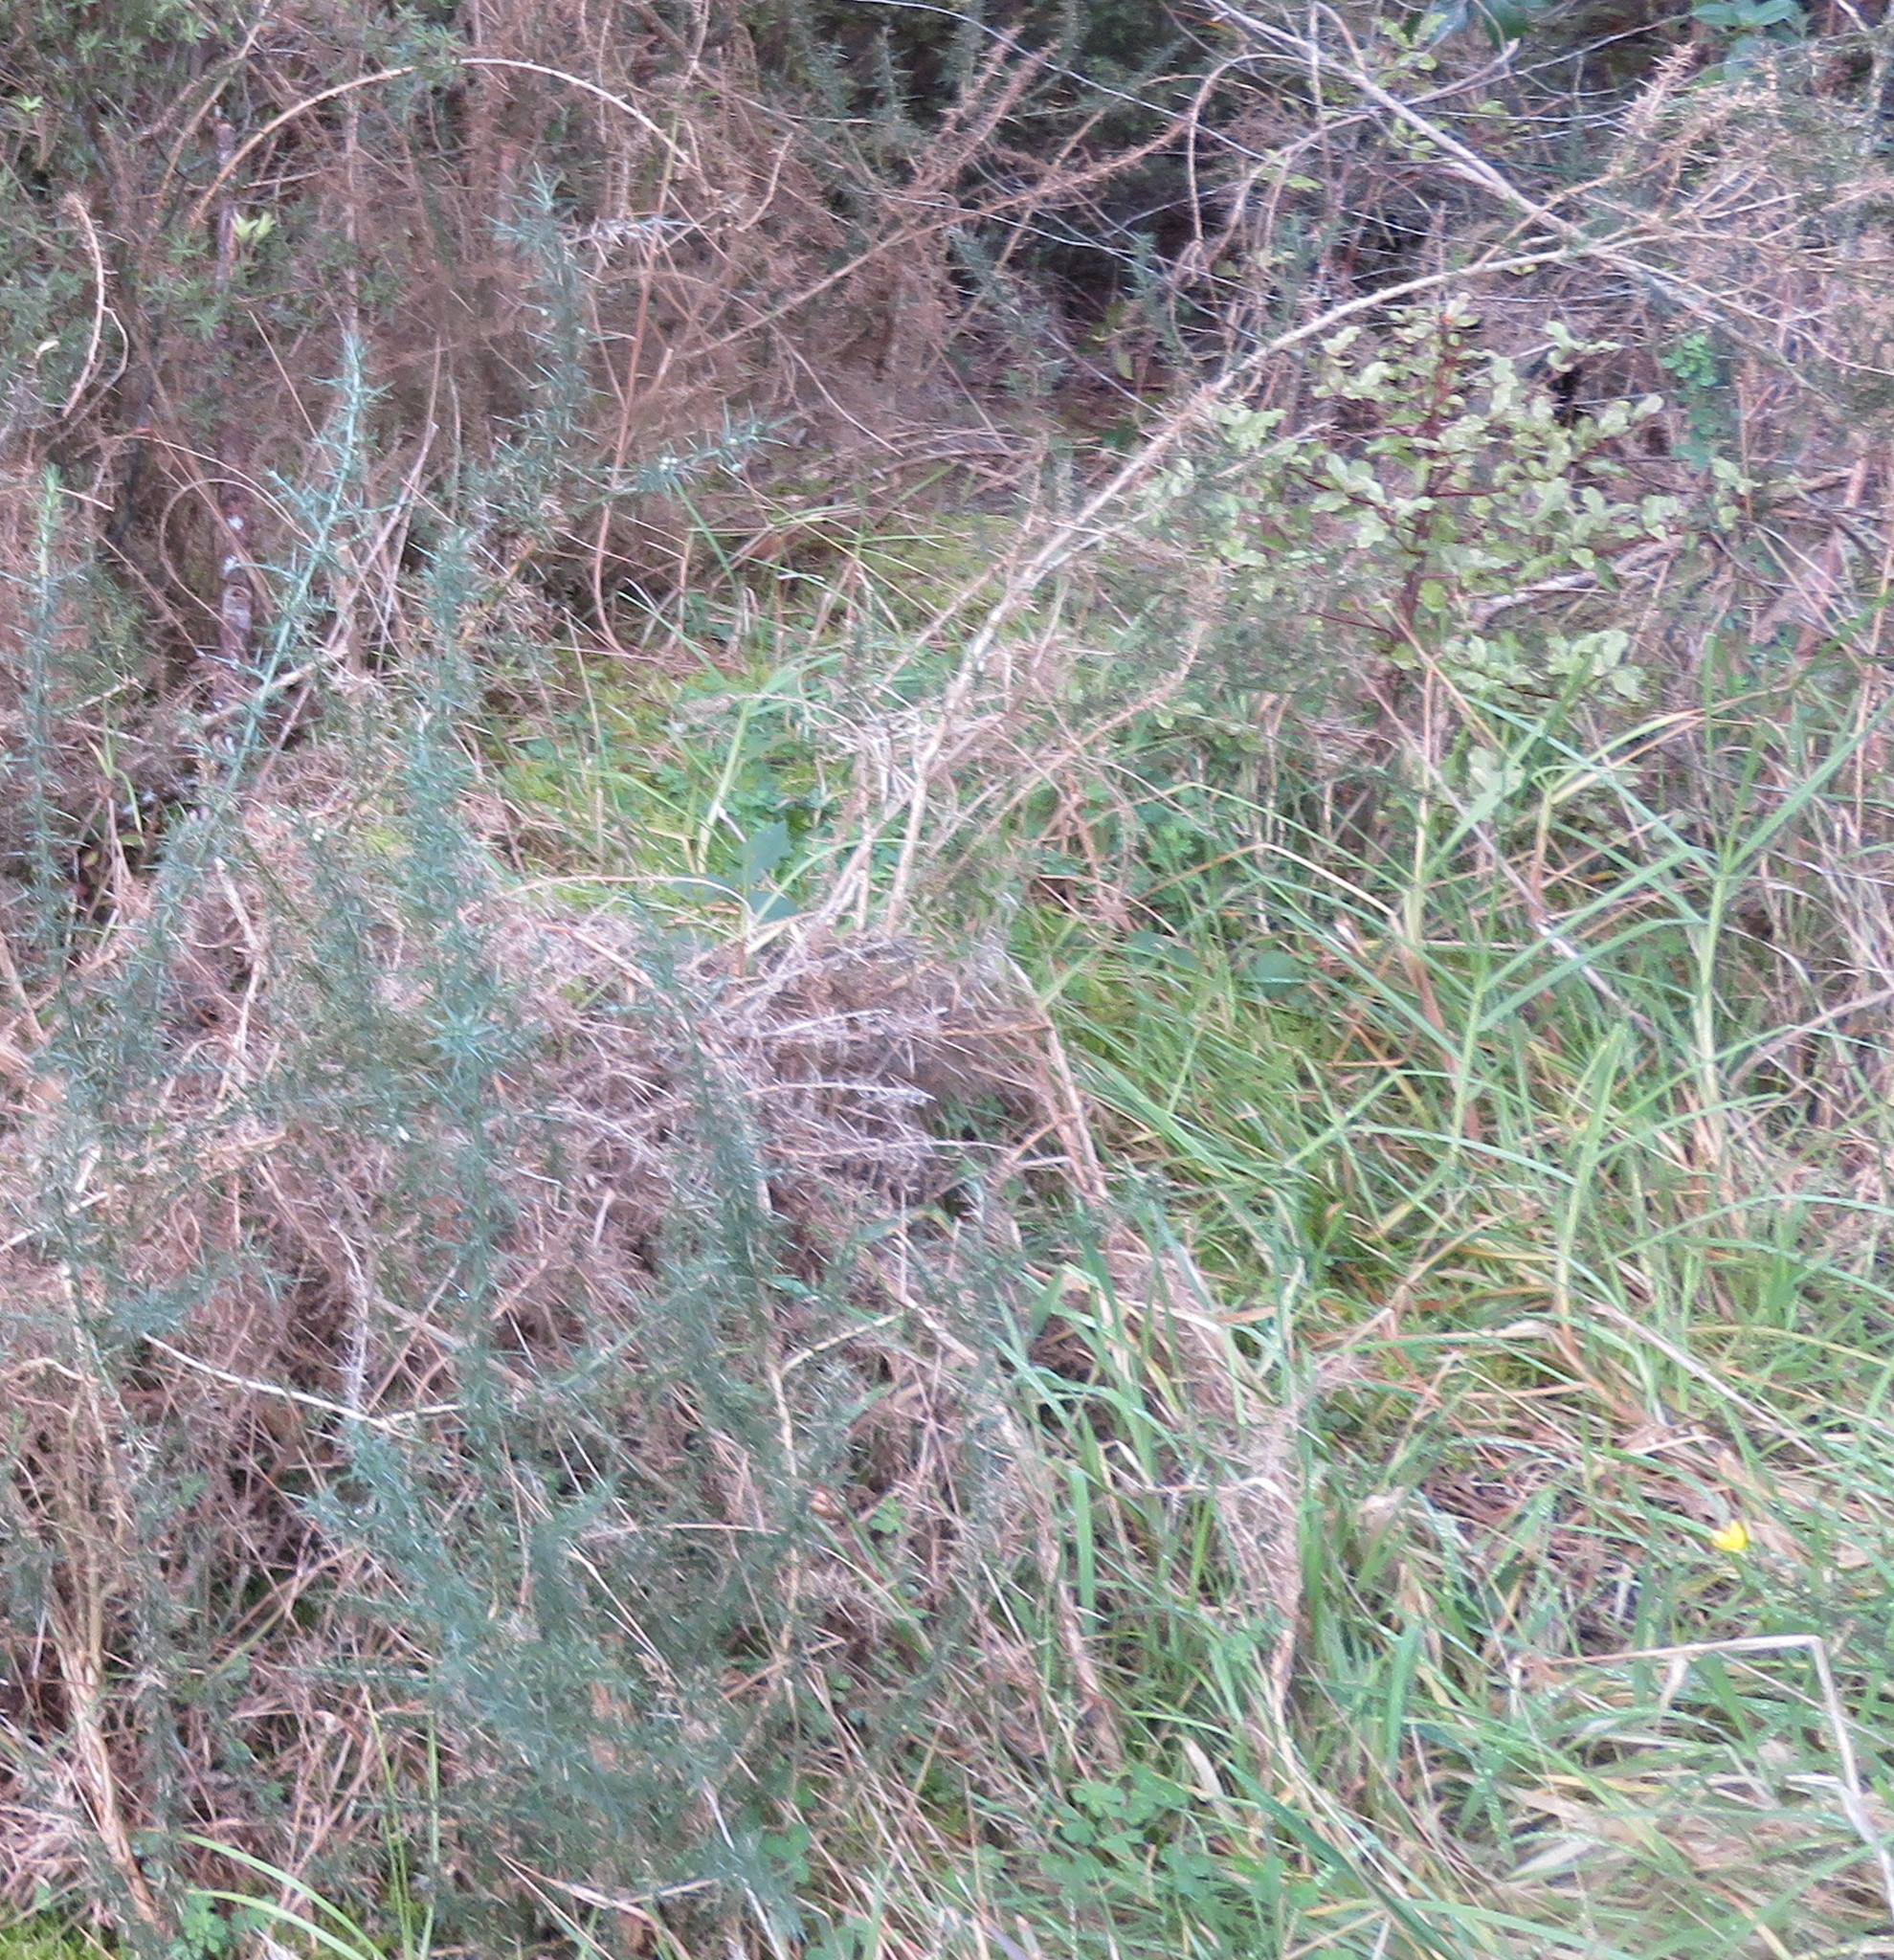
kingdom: Plantae
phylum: Tracheophyta
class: Liliopsida
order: Poales
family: Poaceae
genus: Cenchrus
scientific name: Cenchrus clandestinus
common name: Kikuyugrass
